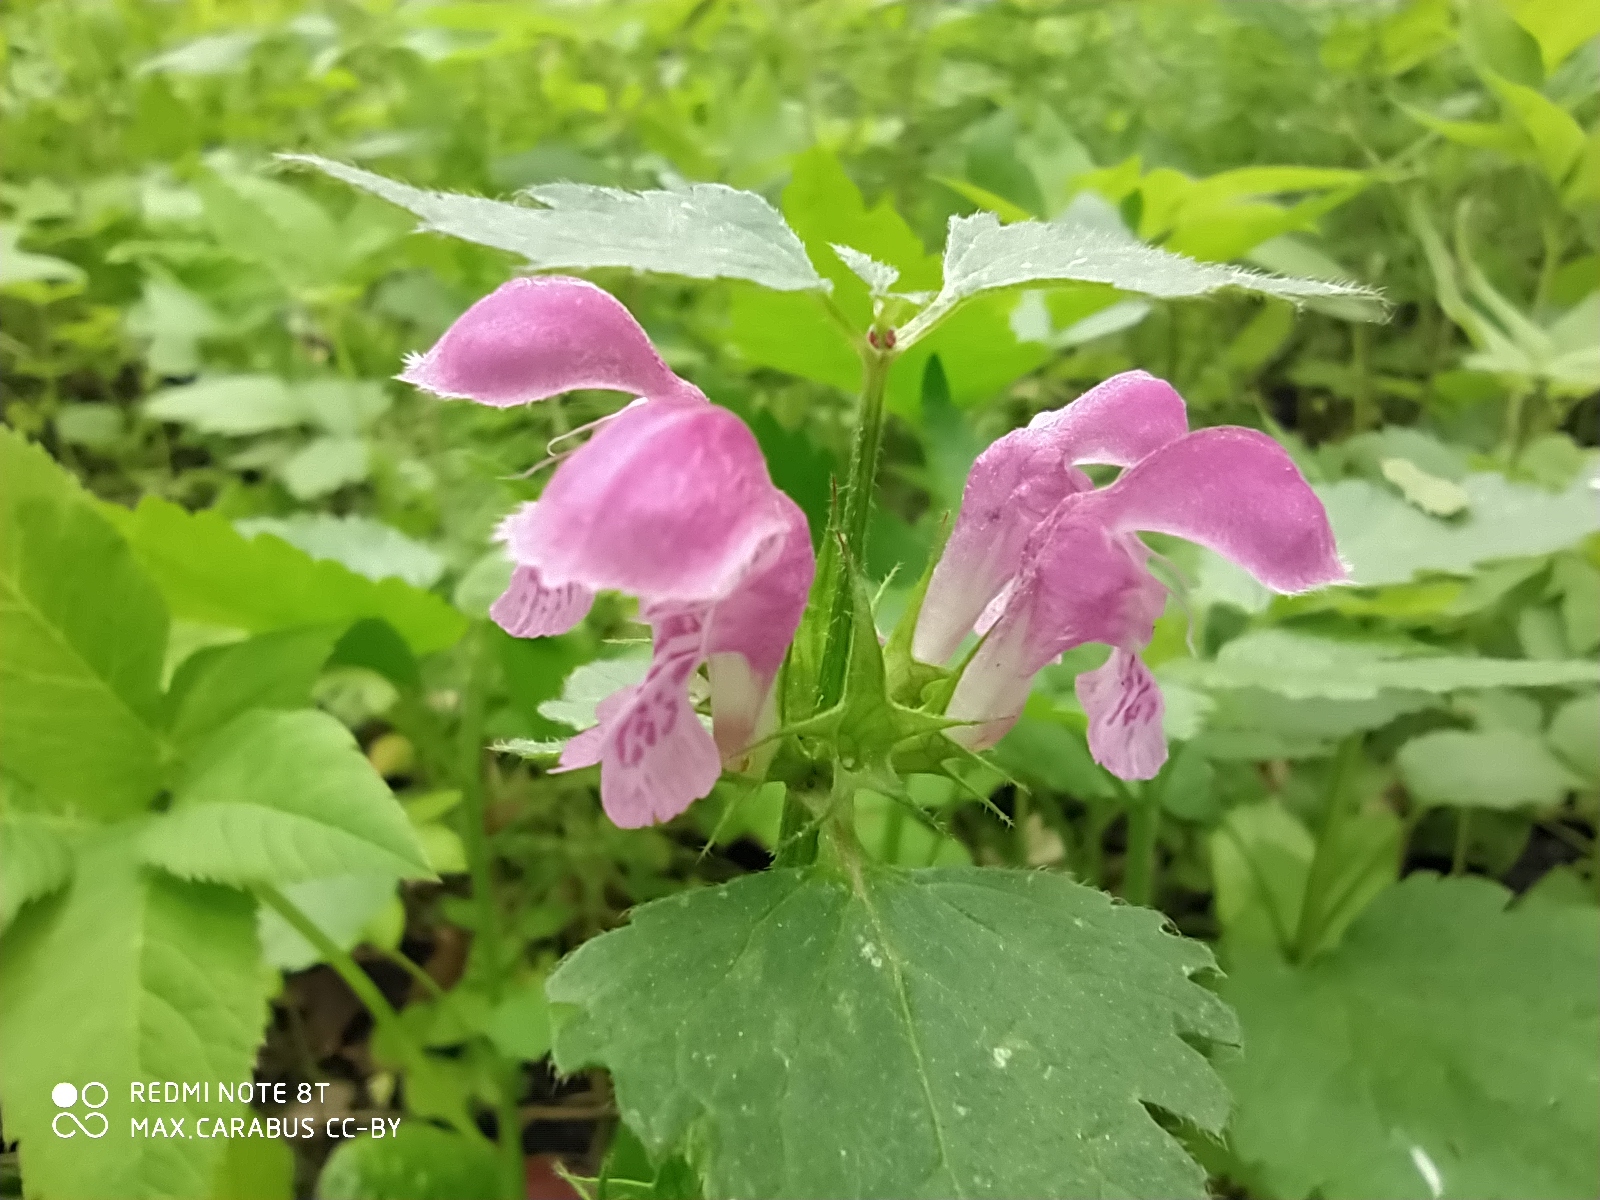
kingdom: Plantae
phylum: Tracheophyta
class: Magnoliopsida
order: Lamiales
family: Lamiaceae
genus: Lamium
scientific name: Lamium maculatum
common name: Spotted dead-nettle
